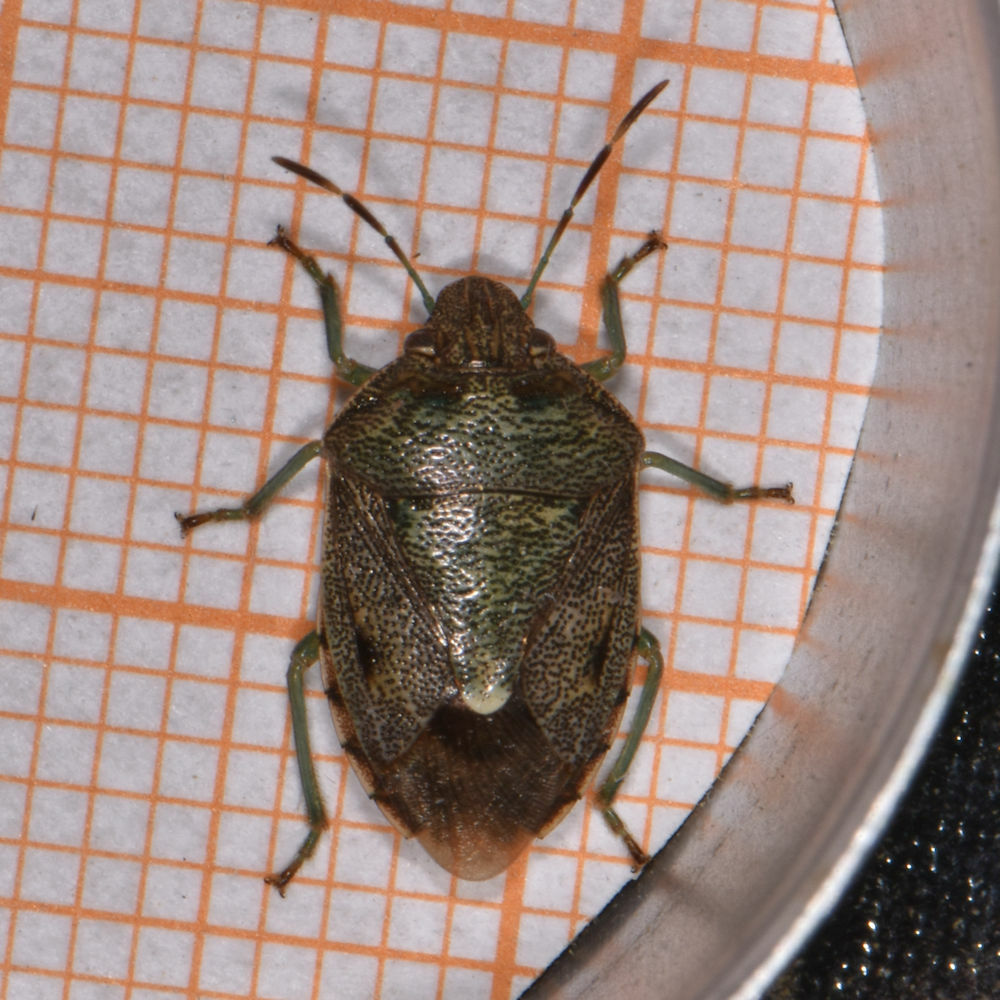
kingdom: Animalia
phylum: Arthropoda
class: Insecta
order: Hemiptera
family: Pentatomidae
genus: Banasa
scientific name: Banasa sordida
